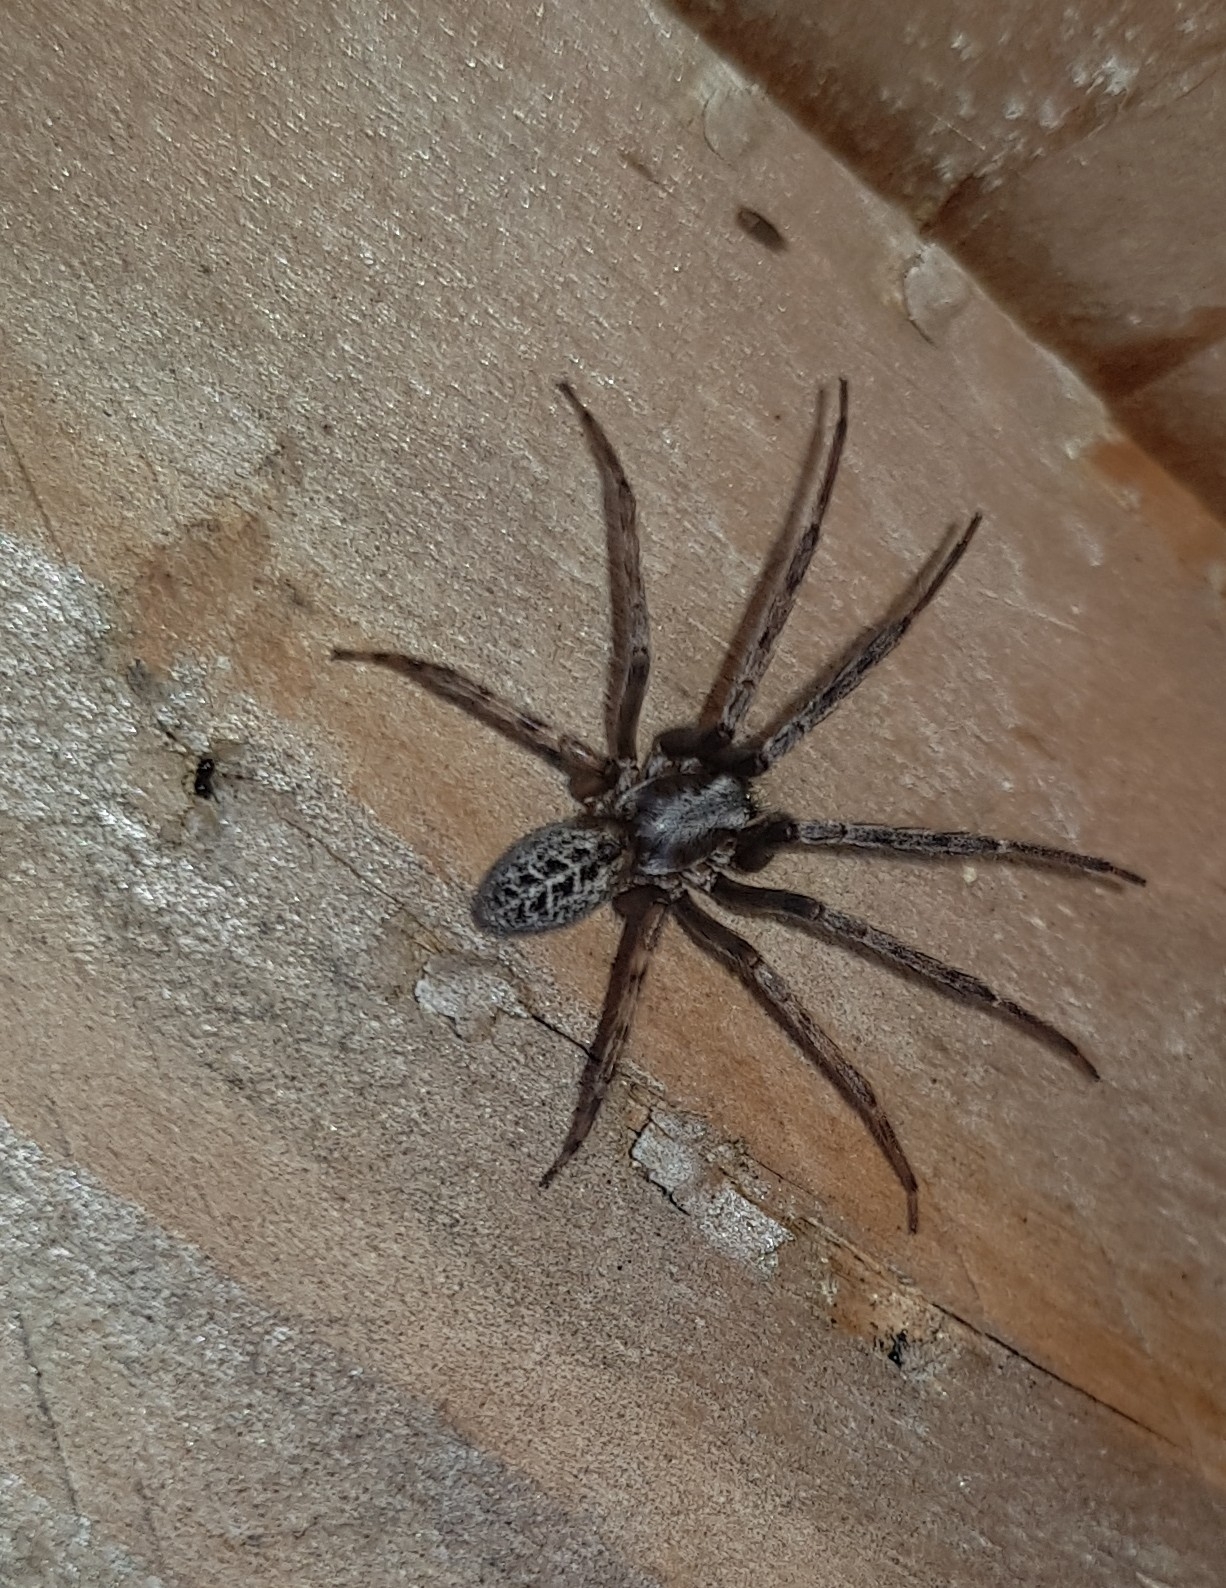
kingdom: Animalia
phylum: Arthropoda
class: Arachnida
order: Araneae
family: Segestriidae
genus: Segestria
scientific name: Segestria bavarica
